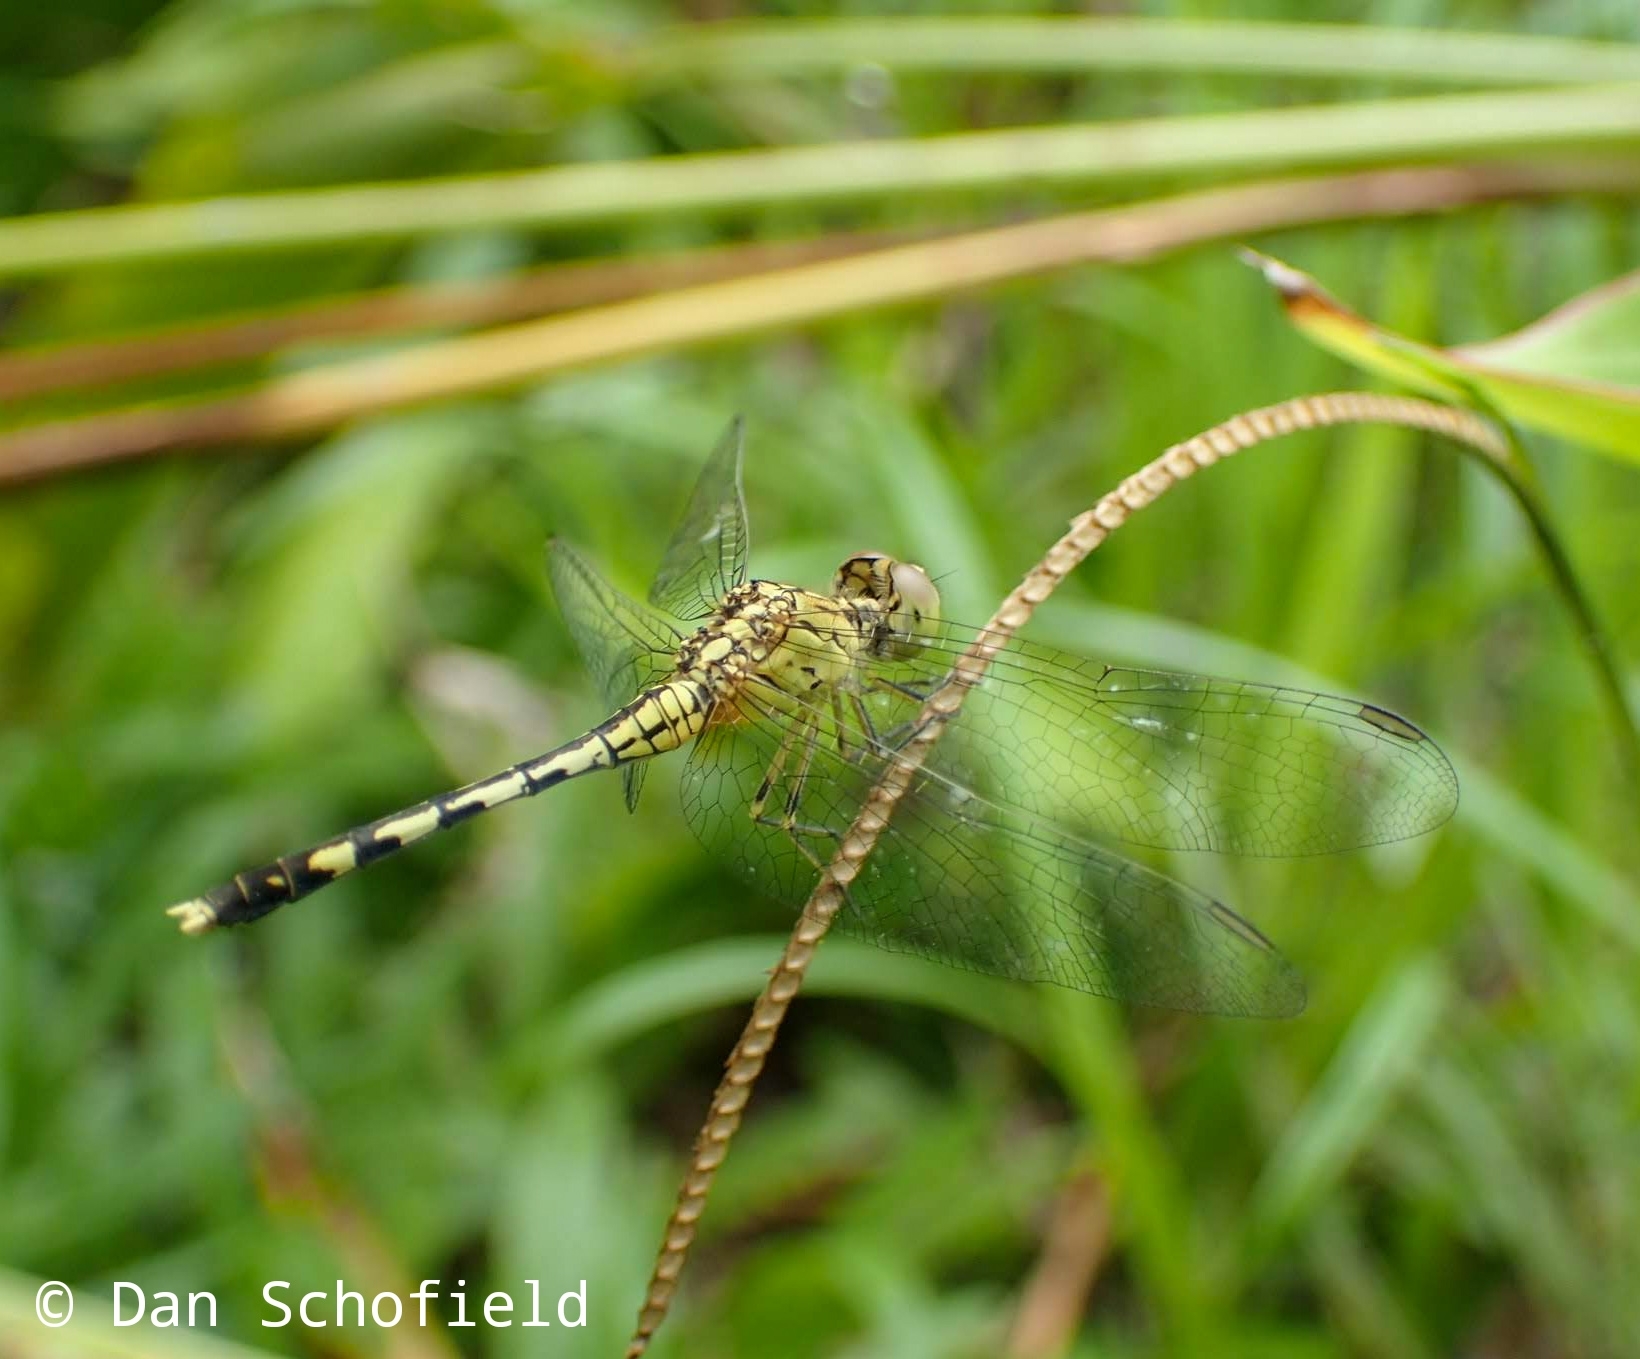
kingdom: Animalia
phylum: Arthropoda
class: Insecta
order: Odonata
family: Libellulidae
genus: Diplacodes
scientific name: Diplacodes trivialis
